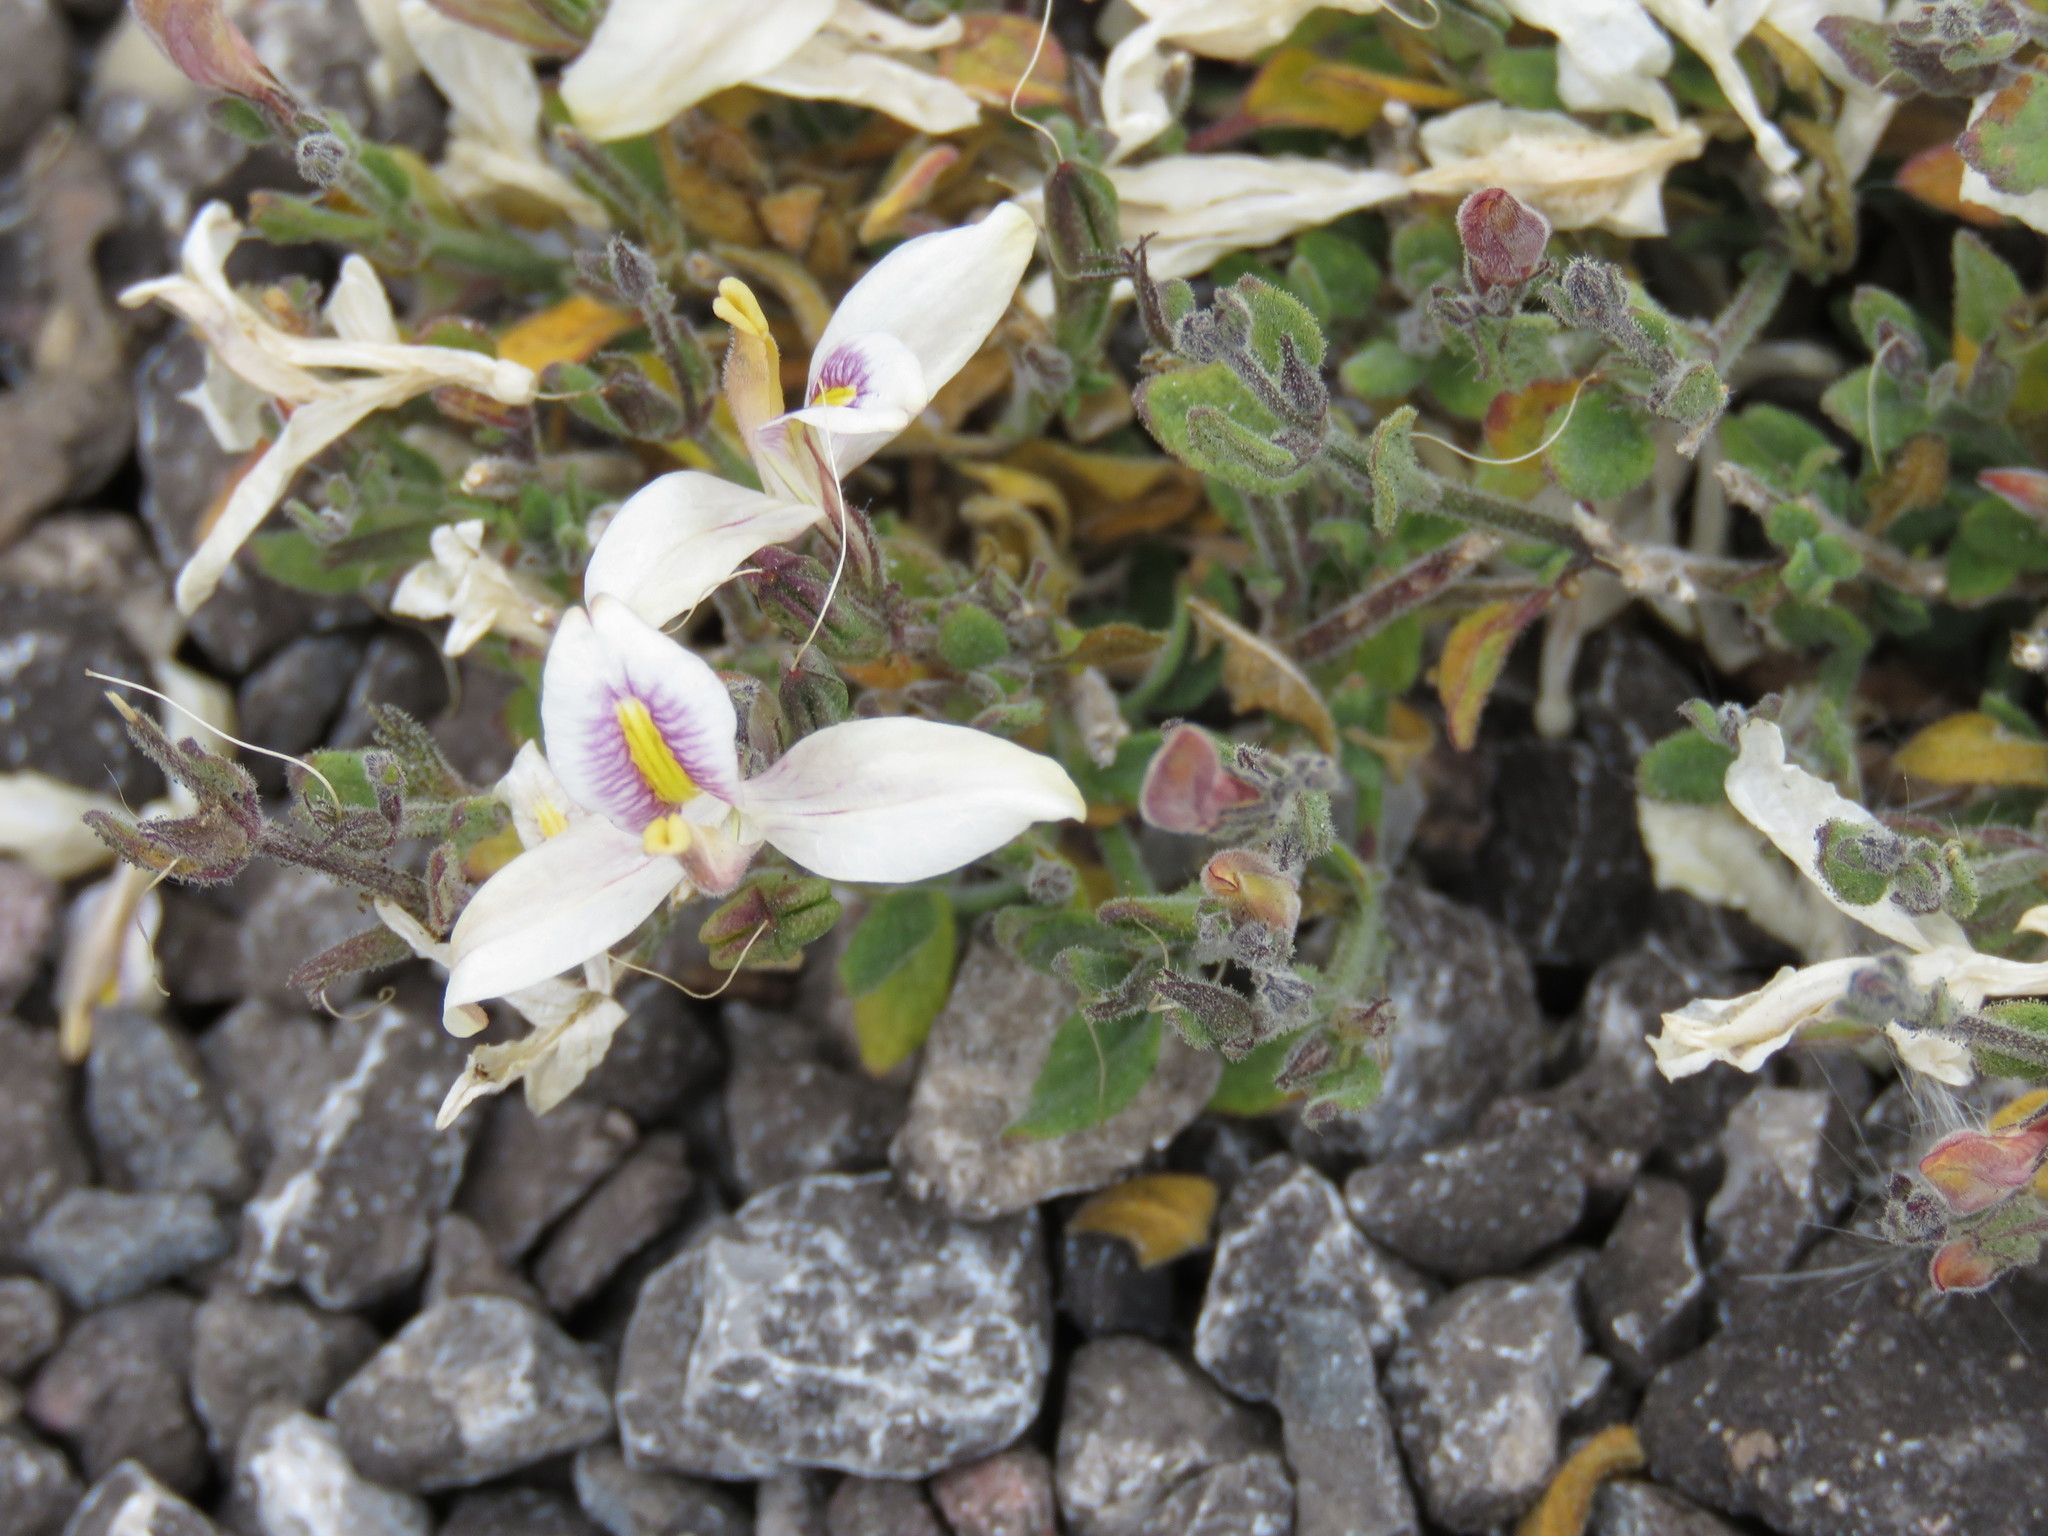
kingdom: Plantae
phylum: Tracheophyta
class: Magnoliopsida
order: Lamiales
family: Acanthaceae
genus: Carlowrightia
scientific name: Carlowrightia neesiana
